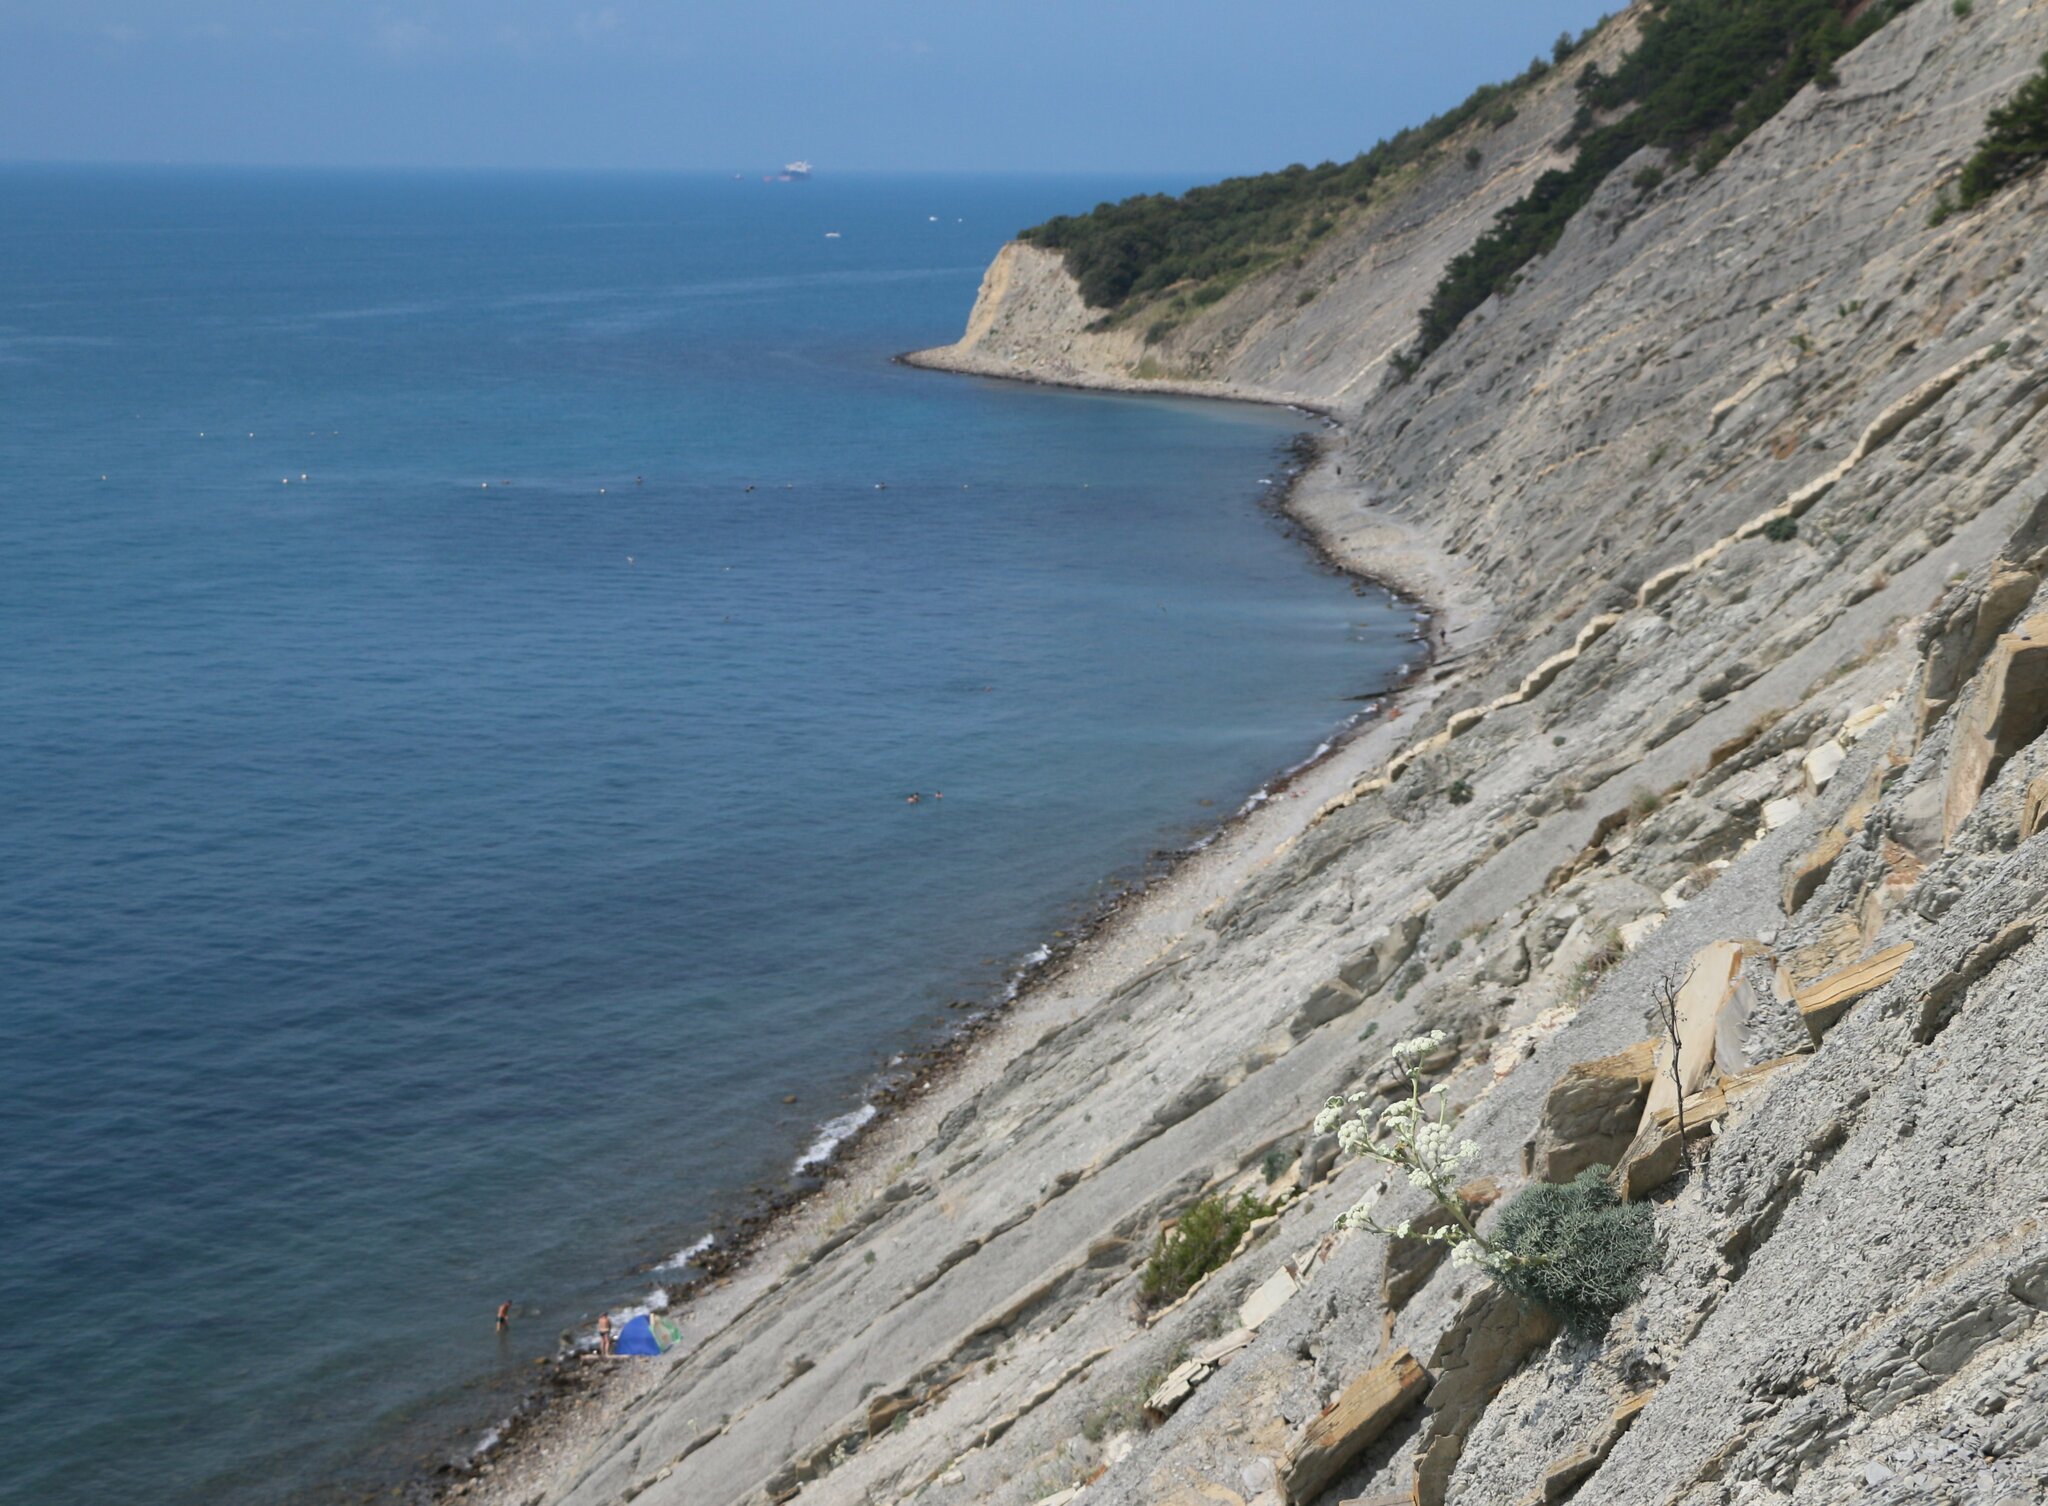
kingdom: Plantae
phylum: Tracheophyta
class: Magnoliopsida
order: Apiales
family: Apiaceae
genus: Seseli
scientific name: Seseli ponticum
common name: Pontic seseli
